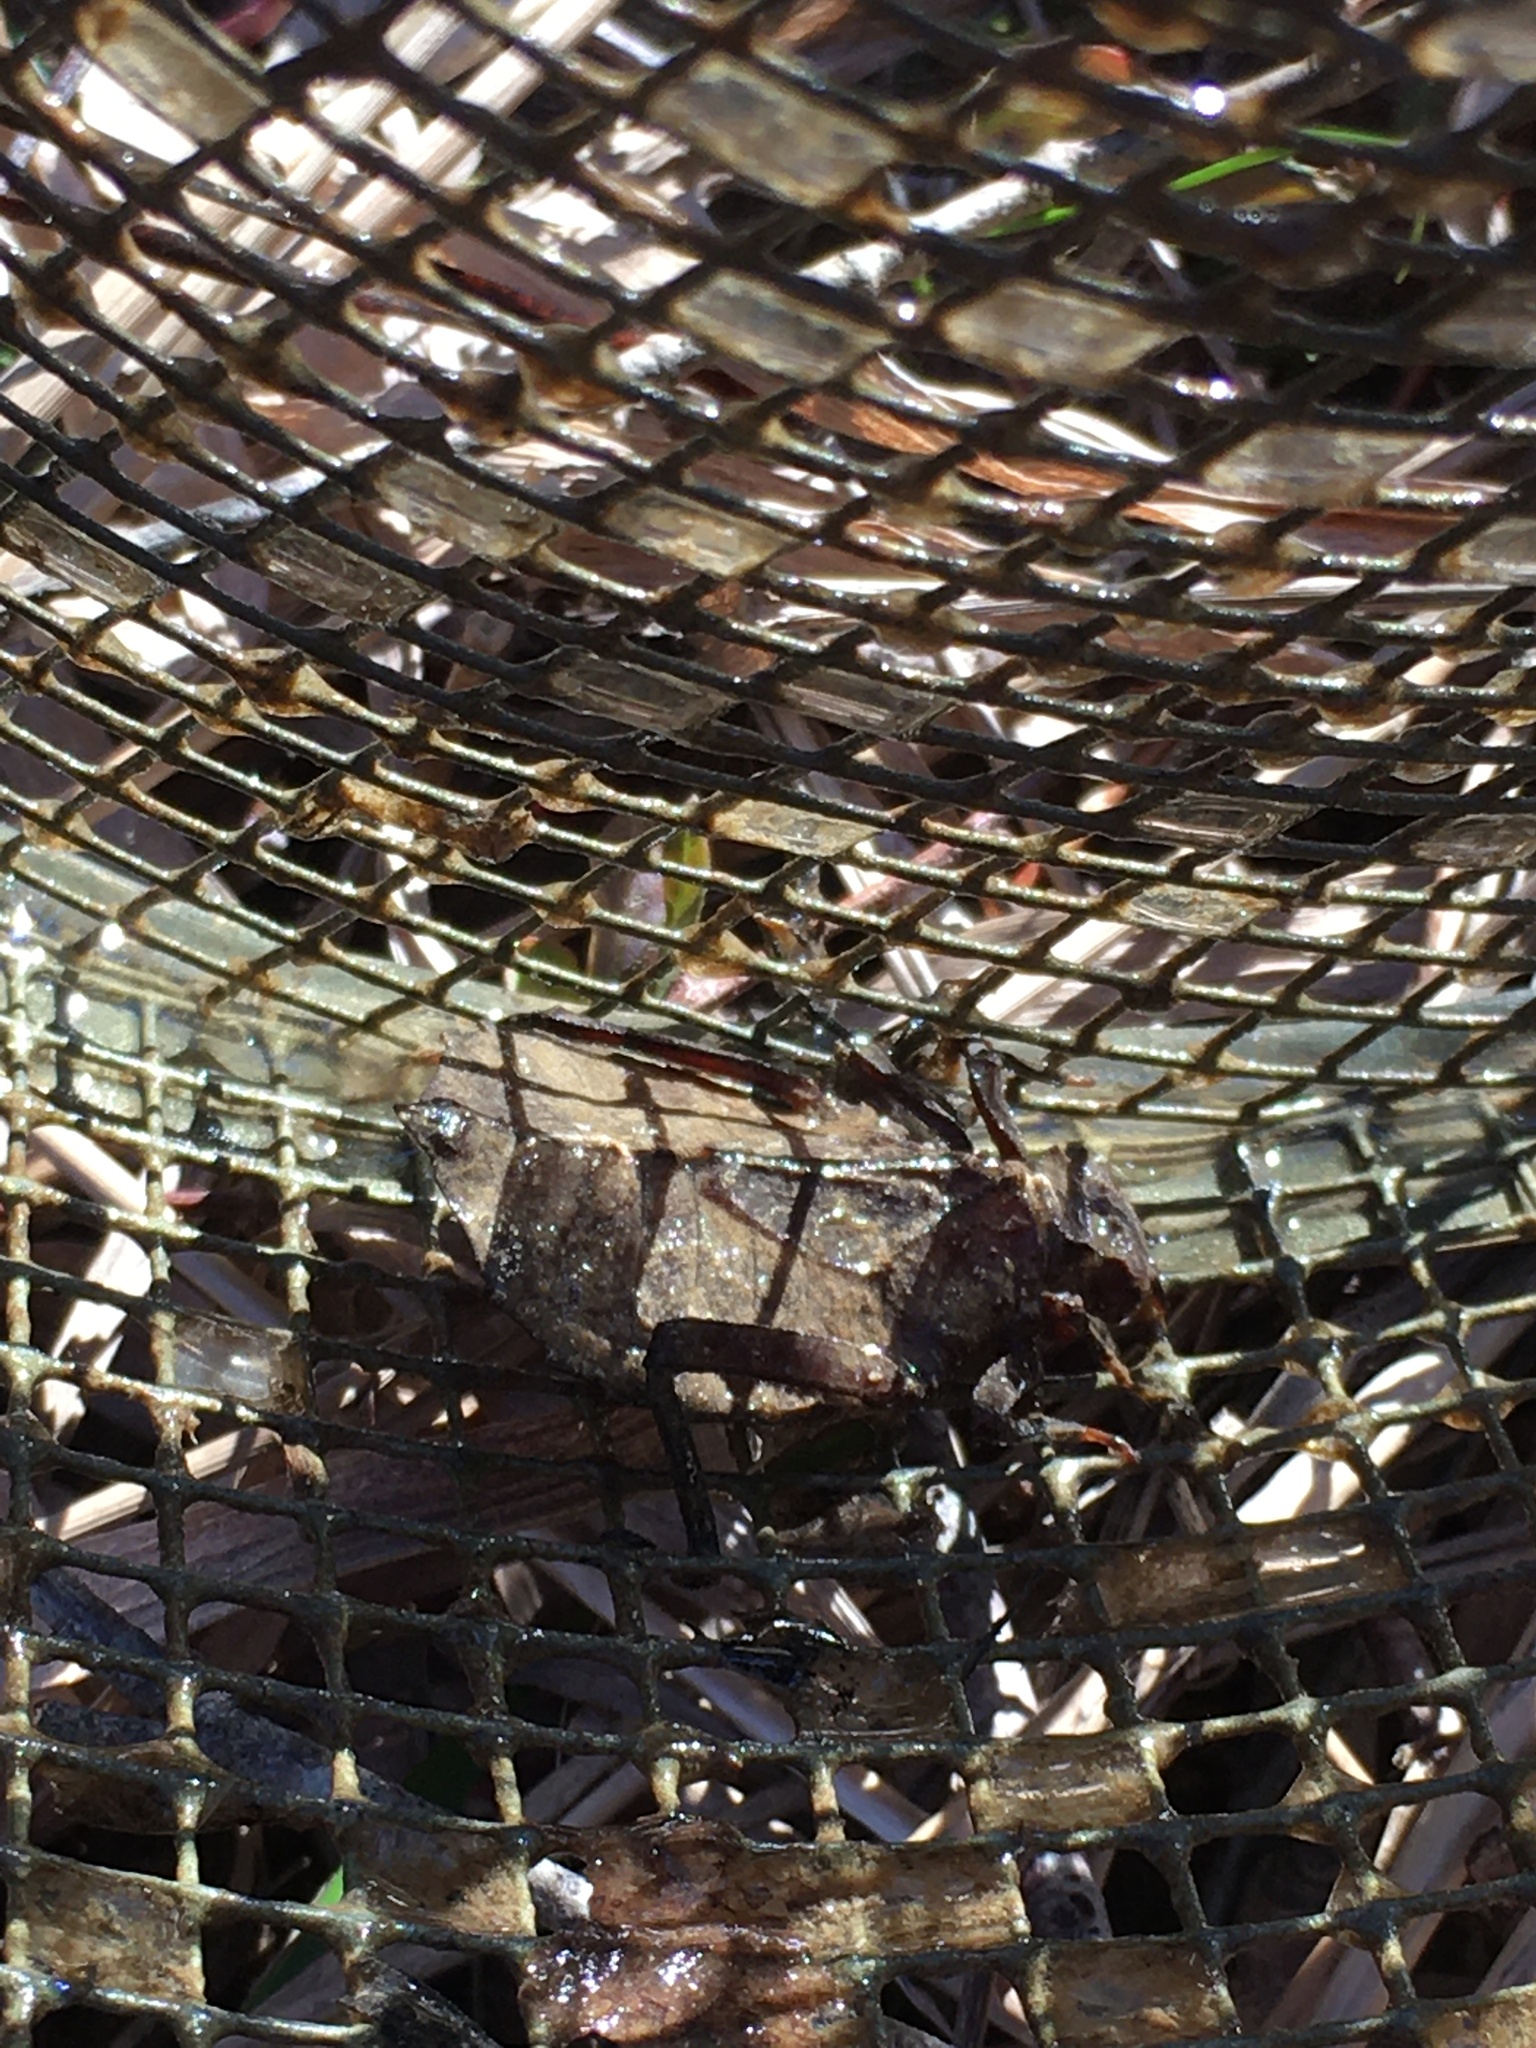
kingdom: Animalia
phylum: Arthropoda
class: Insecta
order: Odonata
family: Gomphidae
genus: Hagenius
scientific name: Hagenius brevistylus
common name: Dragonhunter
